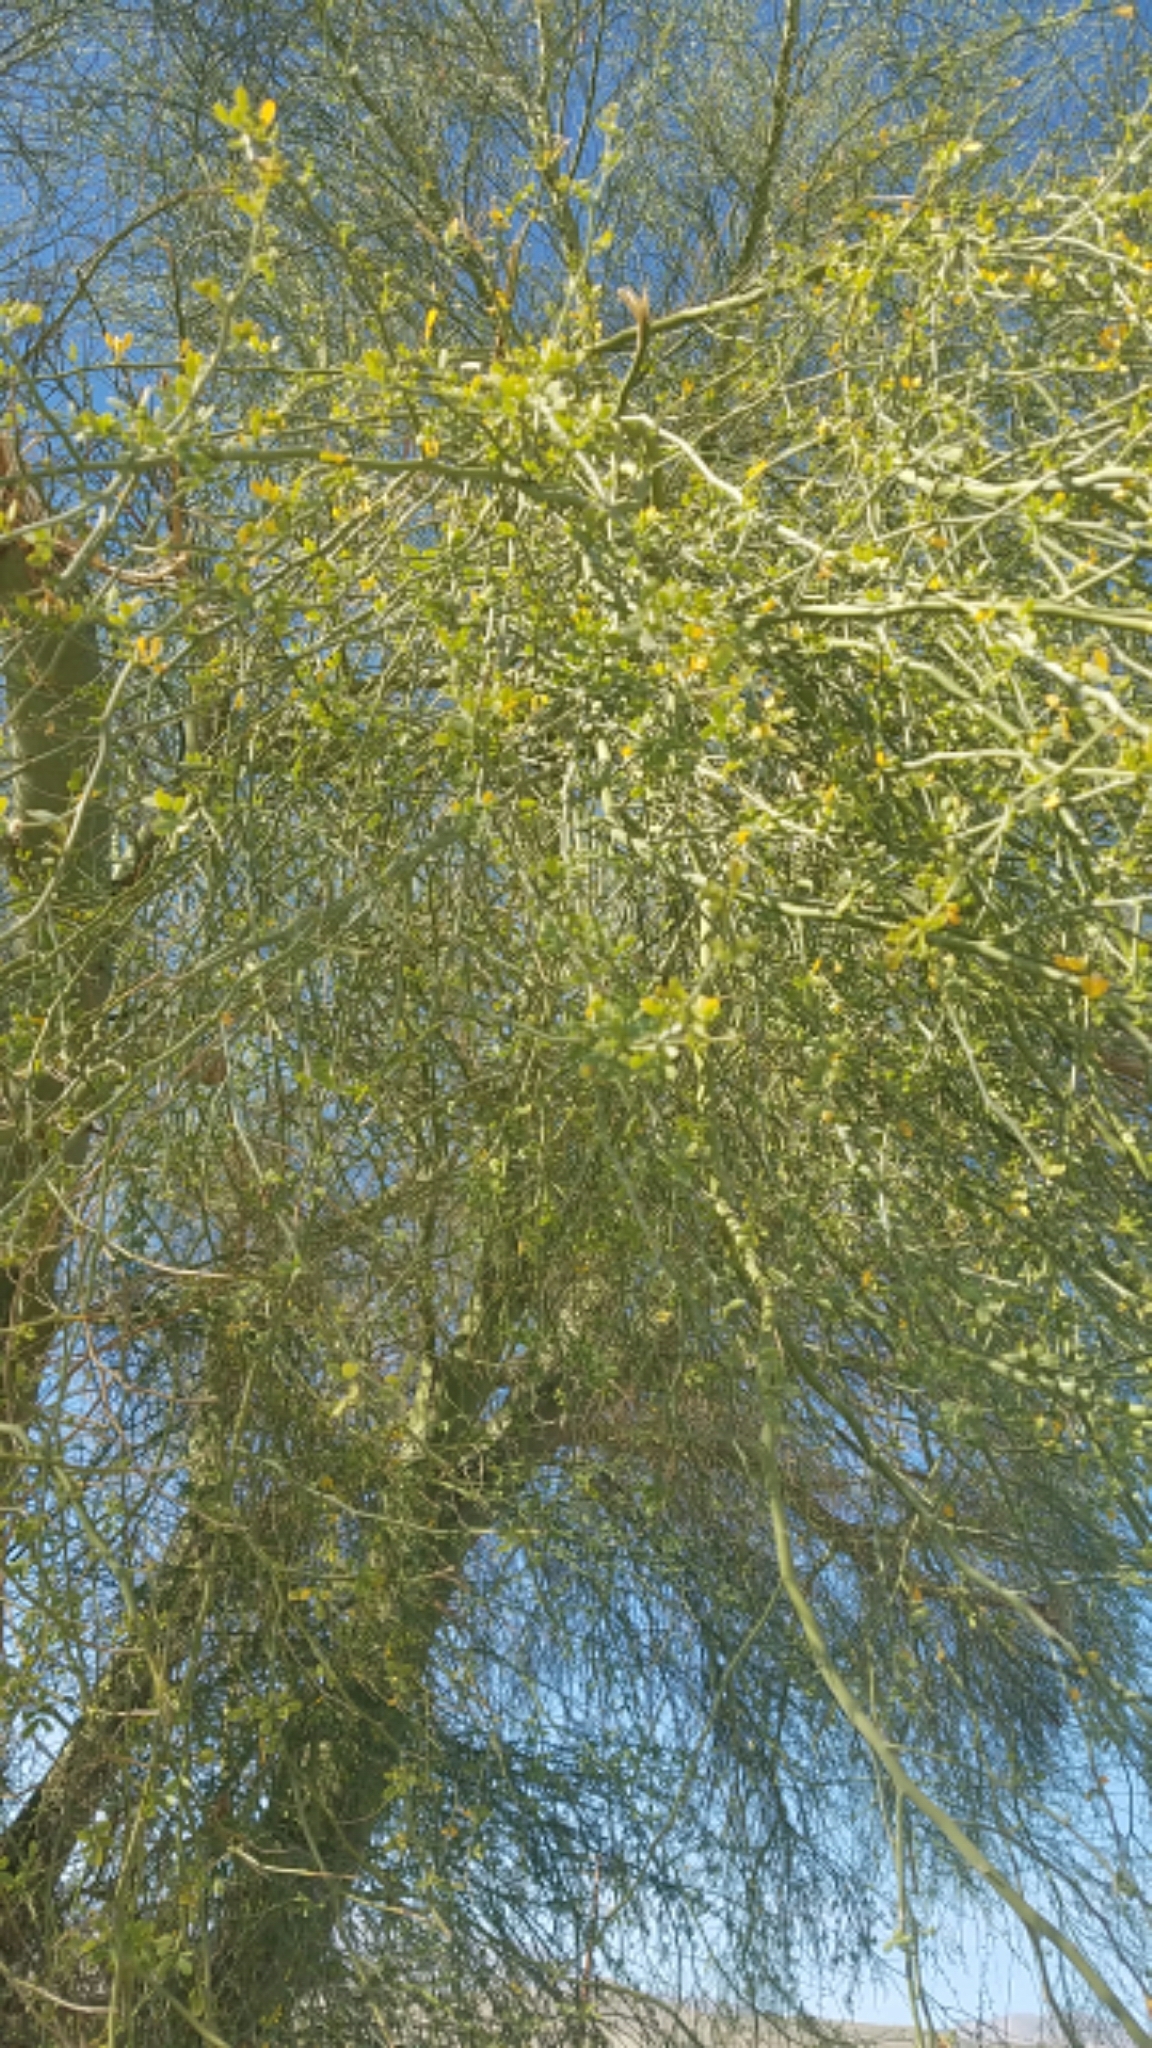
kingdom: Plantae
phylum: Tracheophyta
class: Magnoliopsida
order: Fabales
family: Fabaceae
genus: Parkinsonia
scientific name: Parkinsonia florida
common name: Blue paloverde
